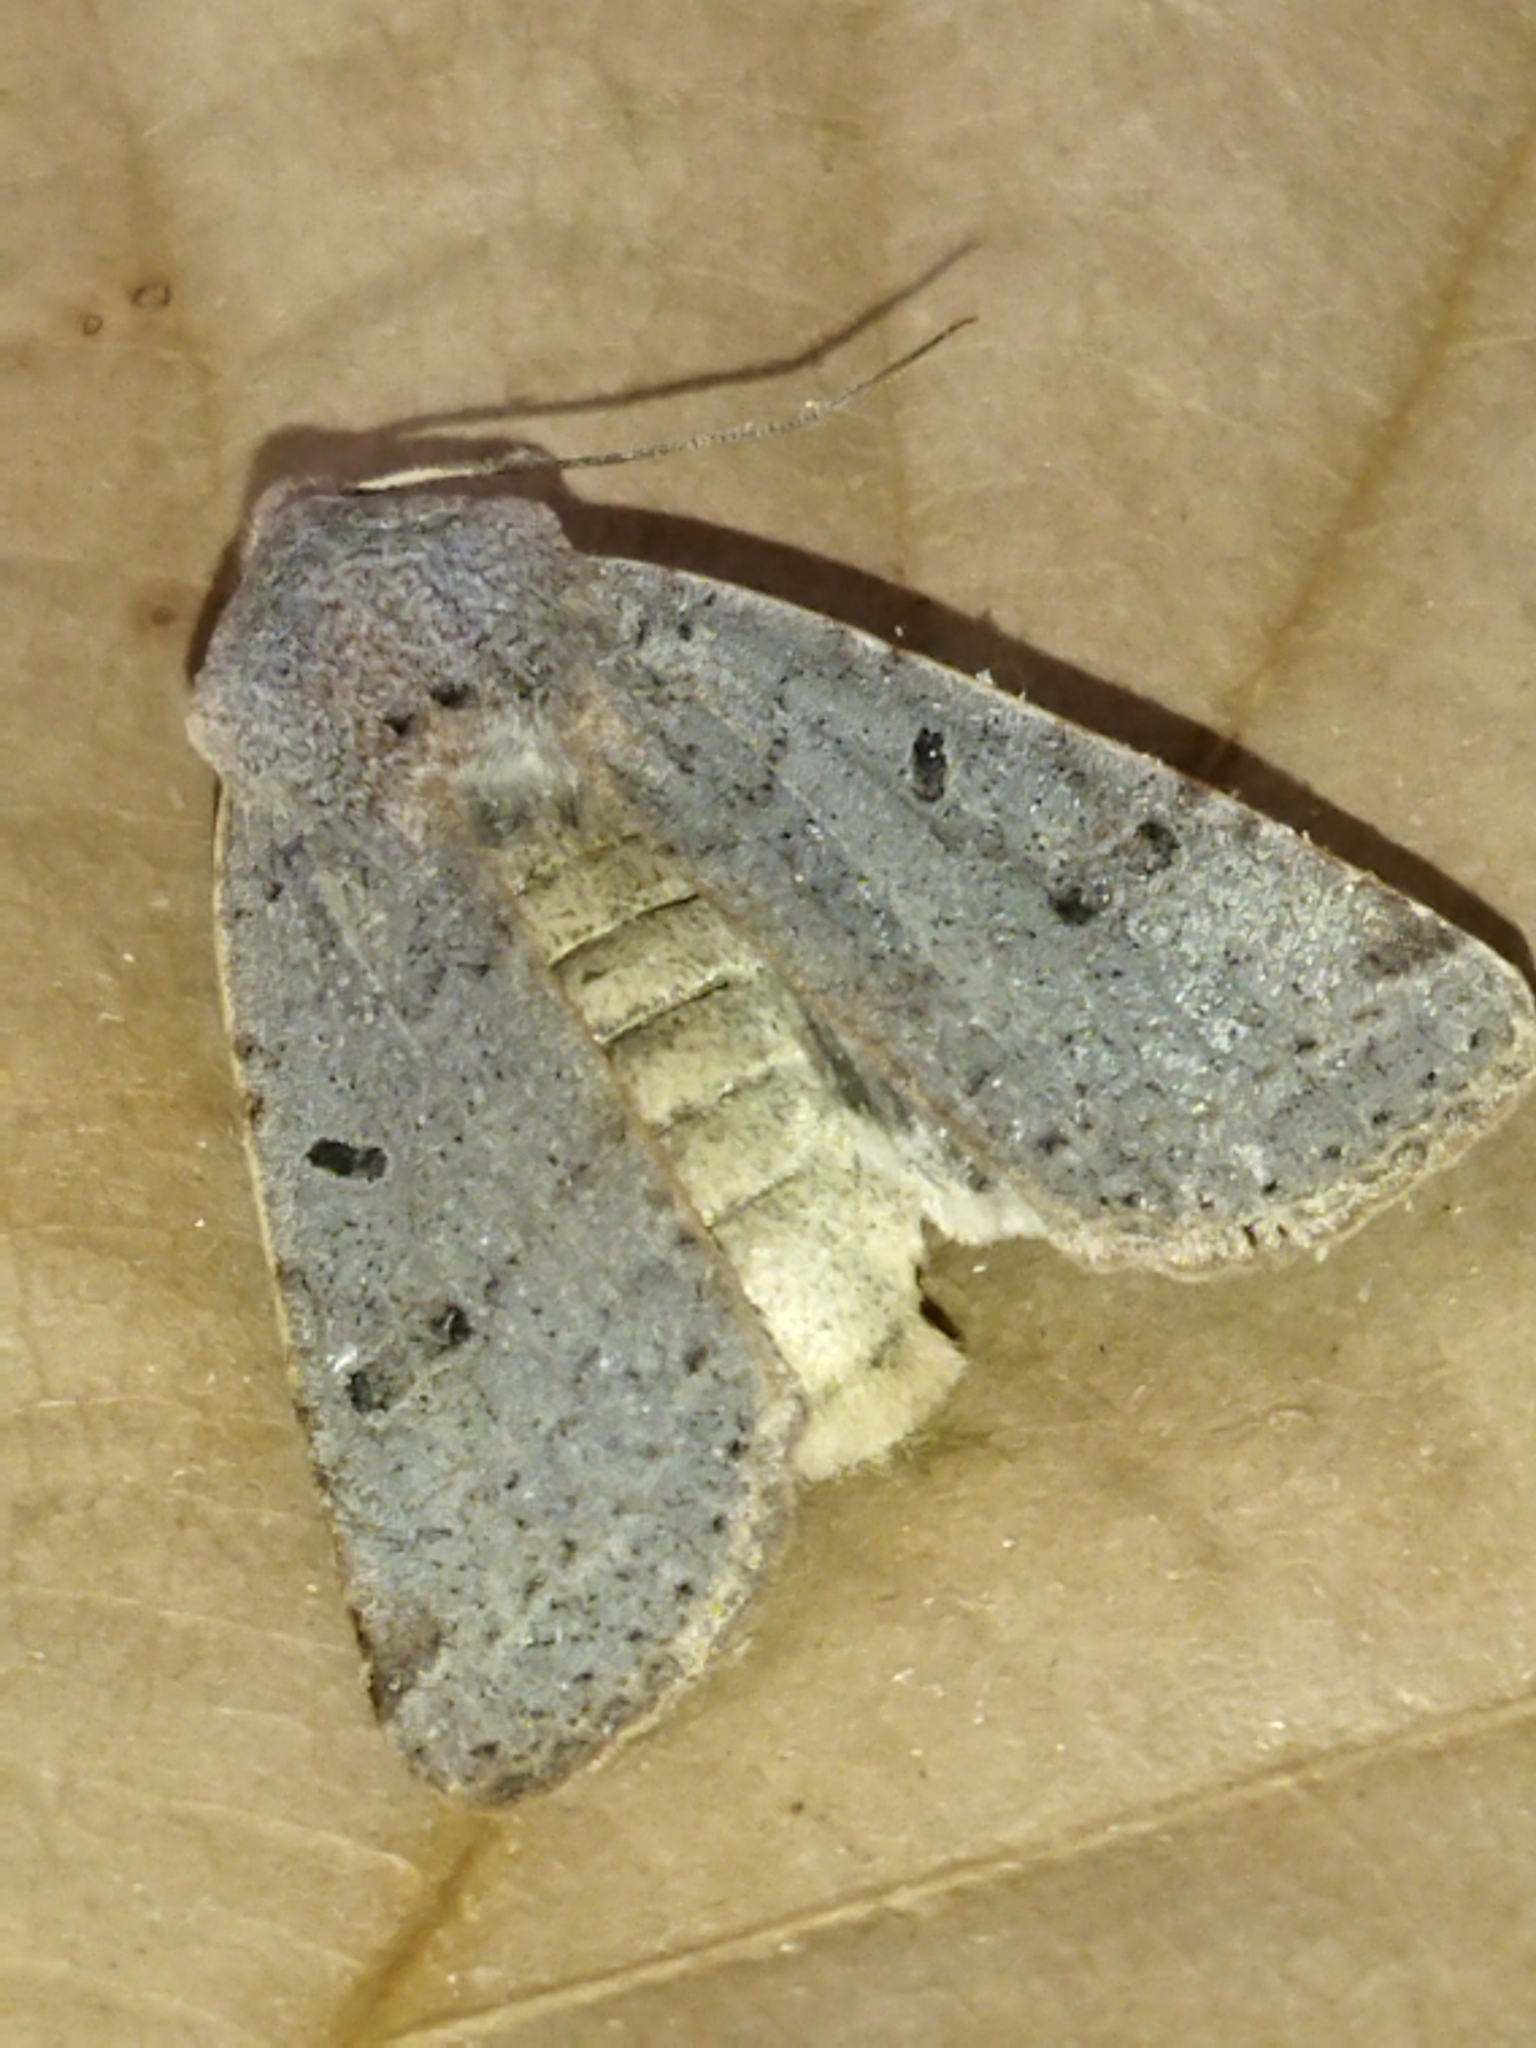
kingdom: Animalia
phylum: Arthropoda
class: Insecta
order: Lepidoptera
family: Noctuidae
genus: Agrochola
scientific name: Agrochola lychnidis
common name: Beaded chestnut
